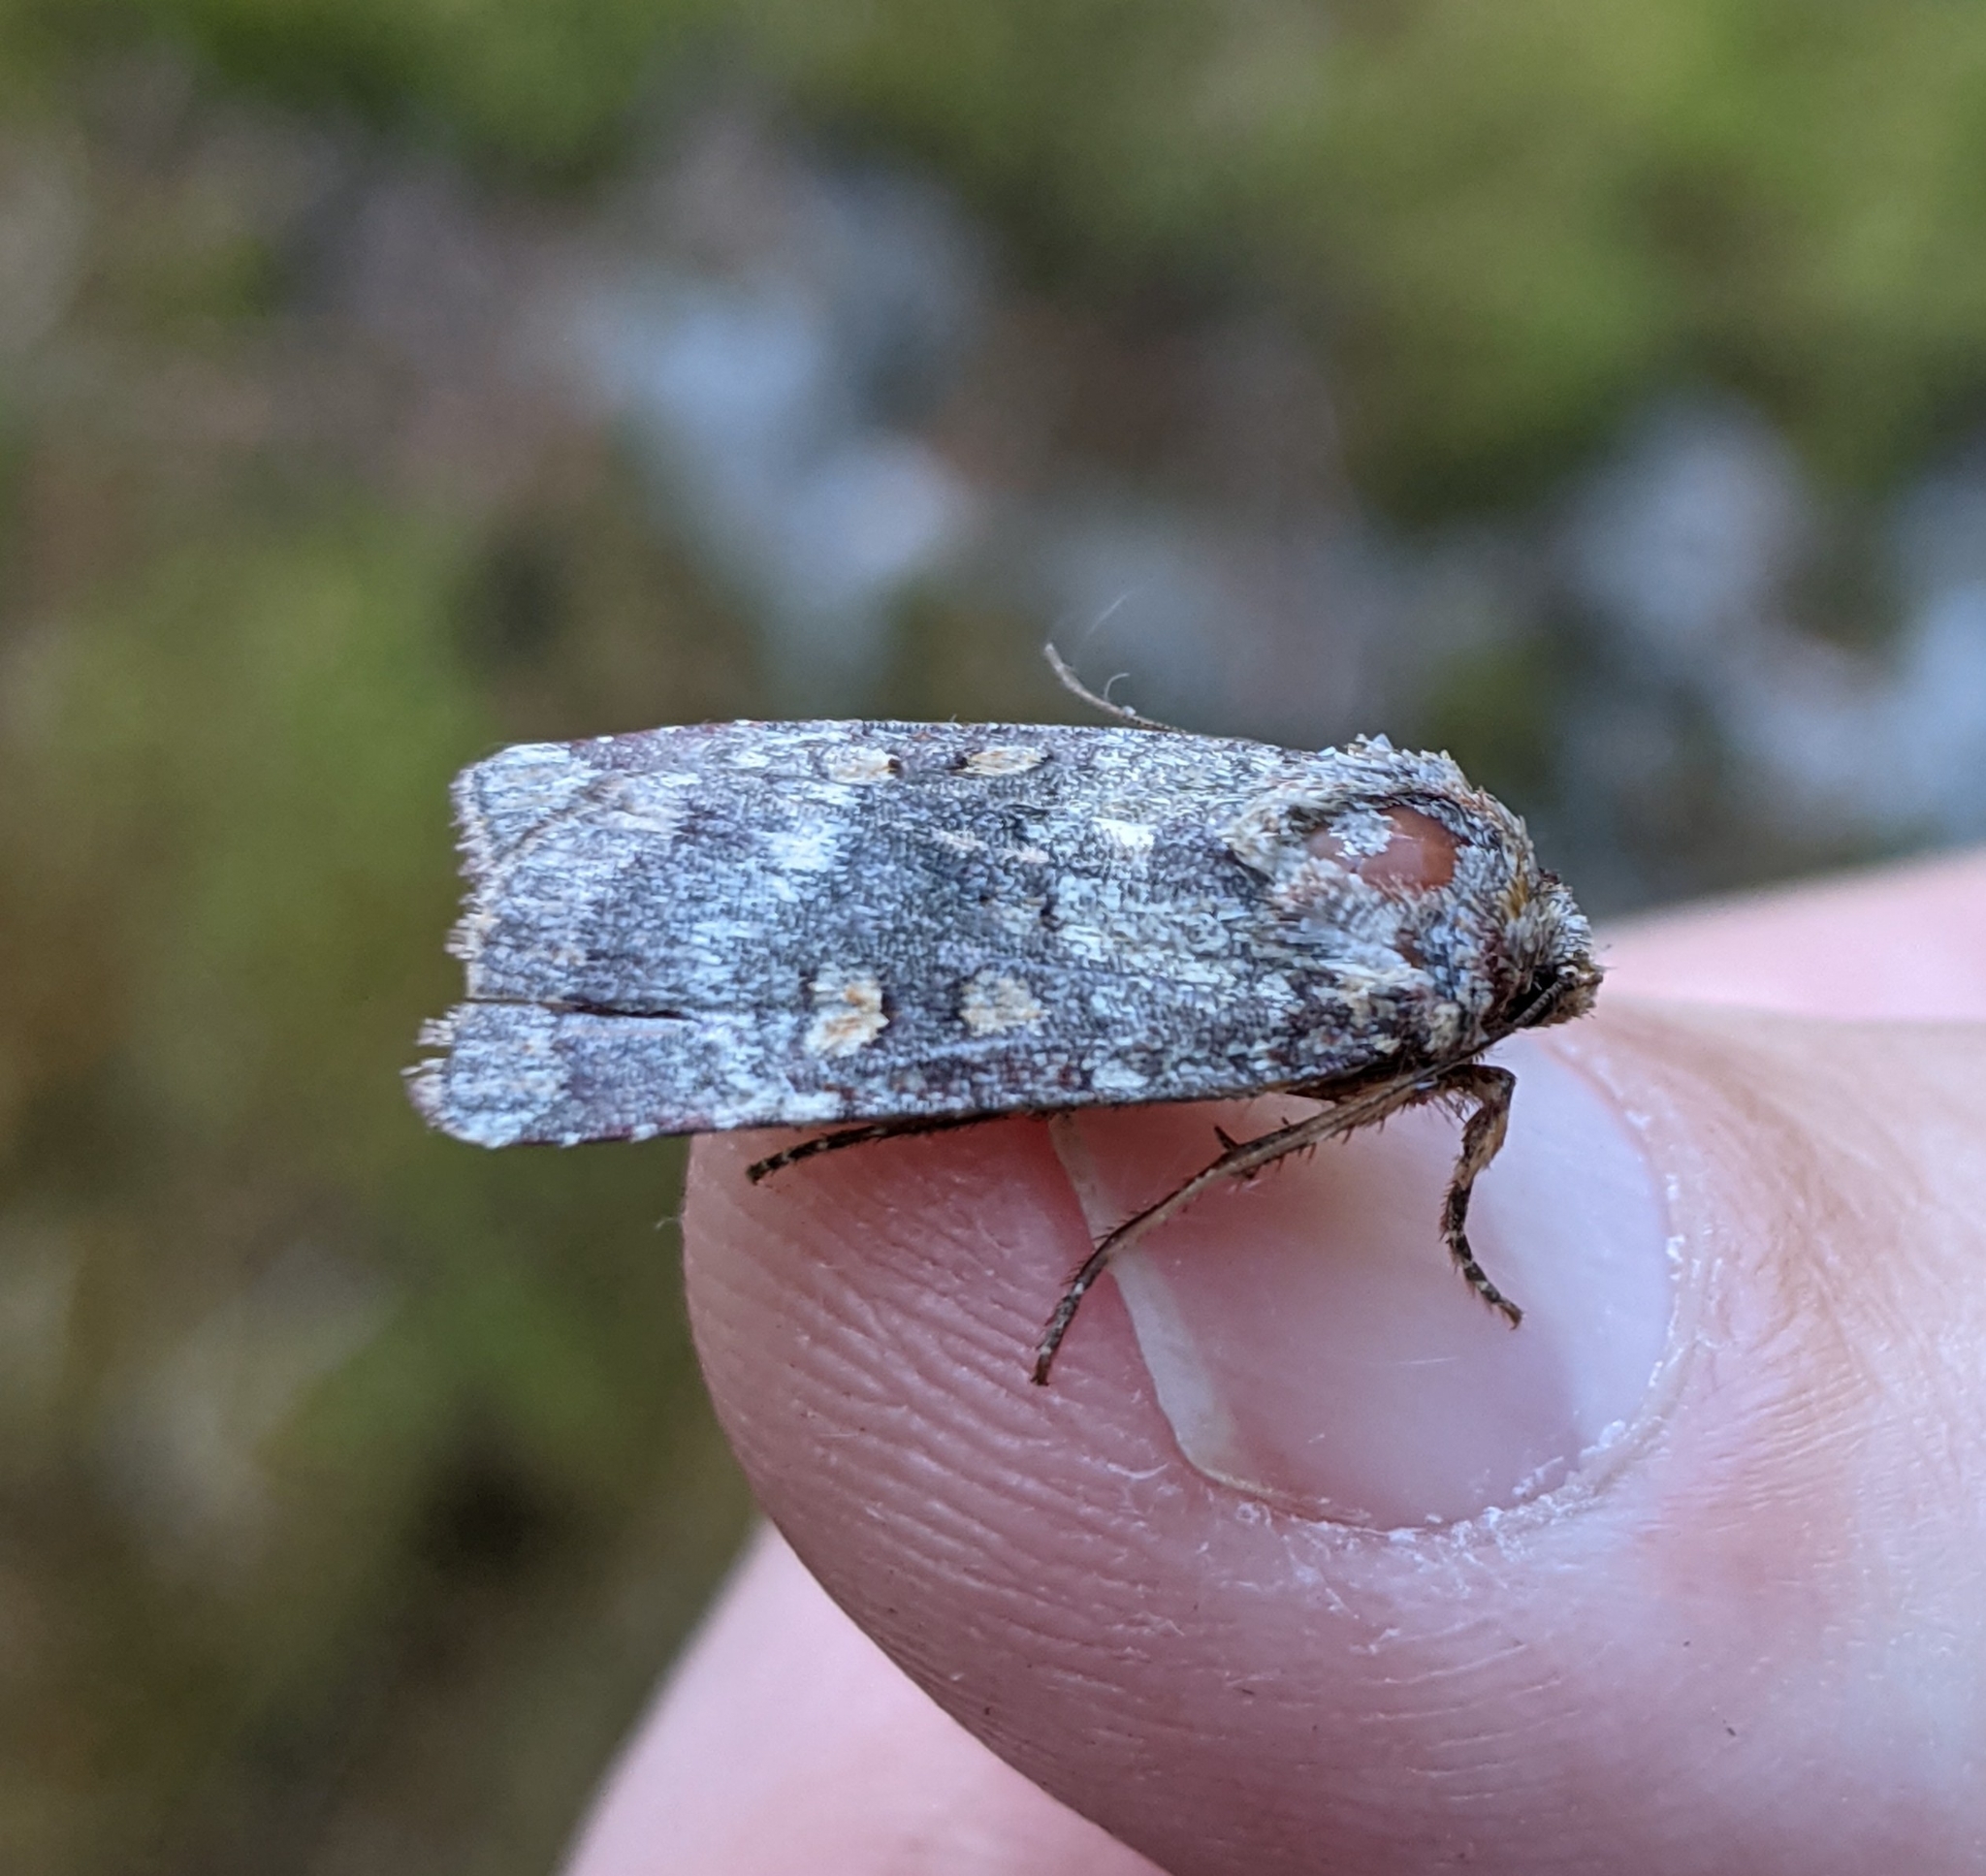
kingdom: Animalia
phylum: Arthropoda
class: Insecta
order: Lepidoptera
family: Noctuidae
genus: Abagrotis
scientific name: Abagrotis pulchrata
